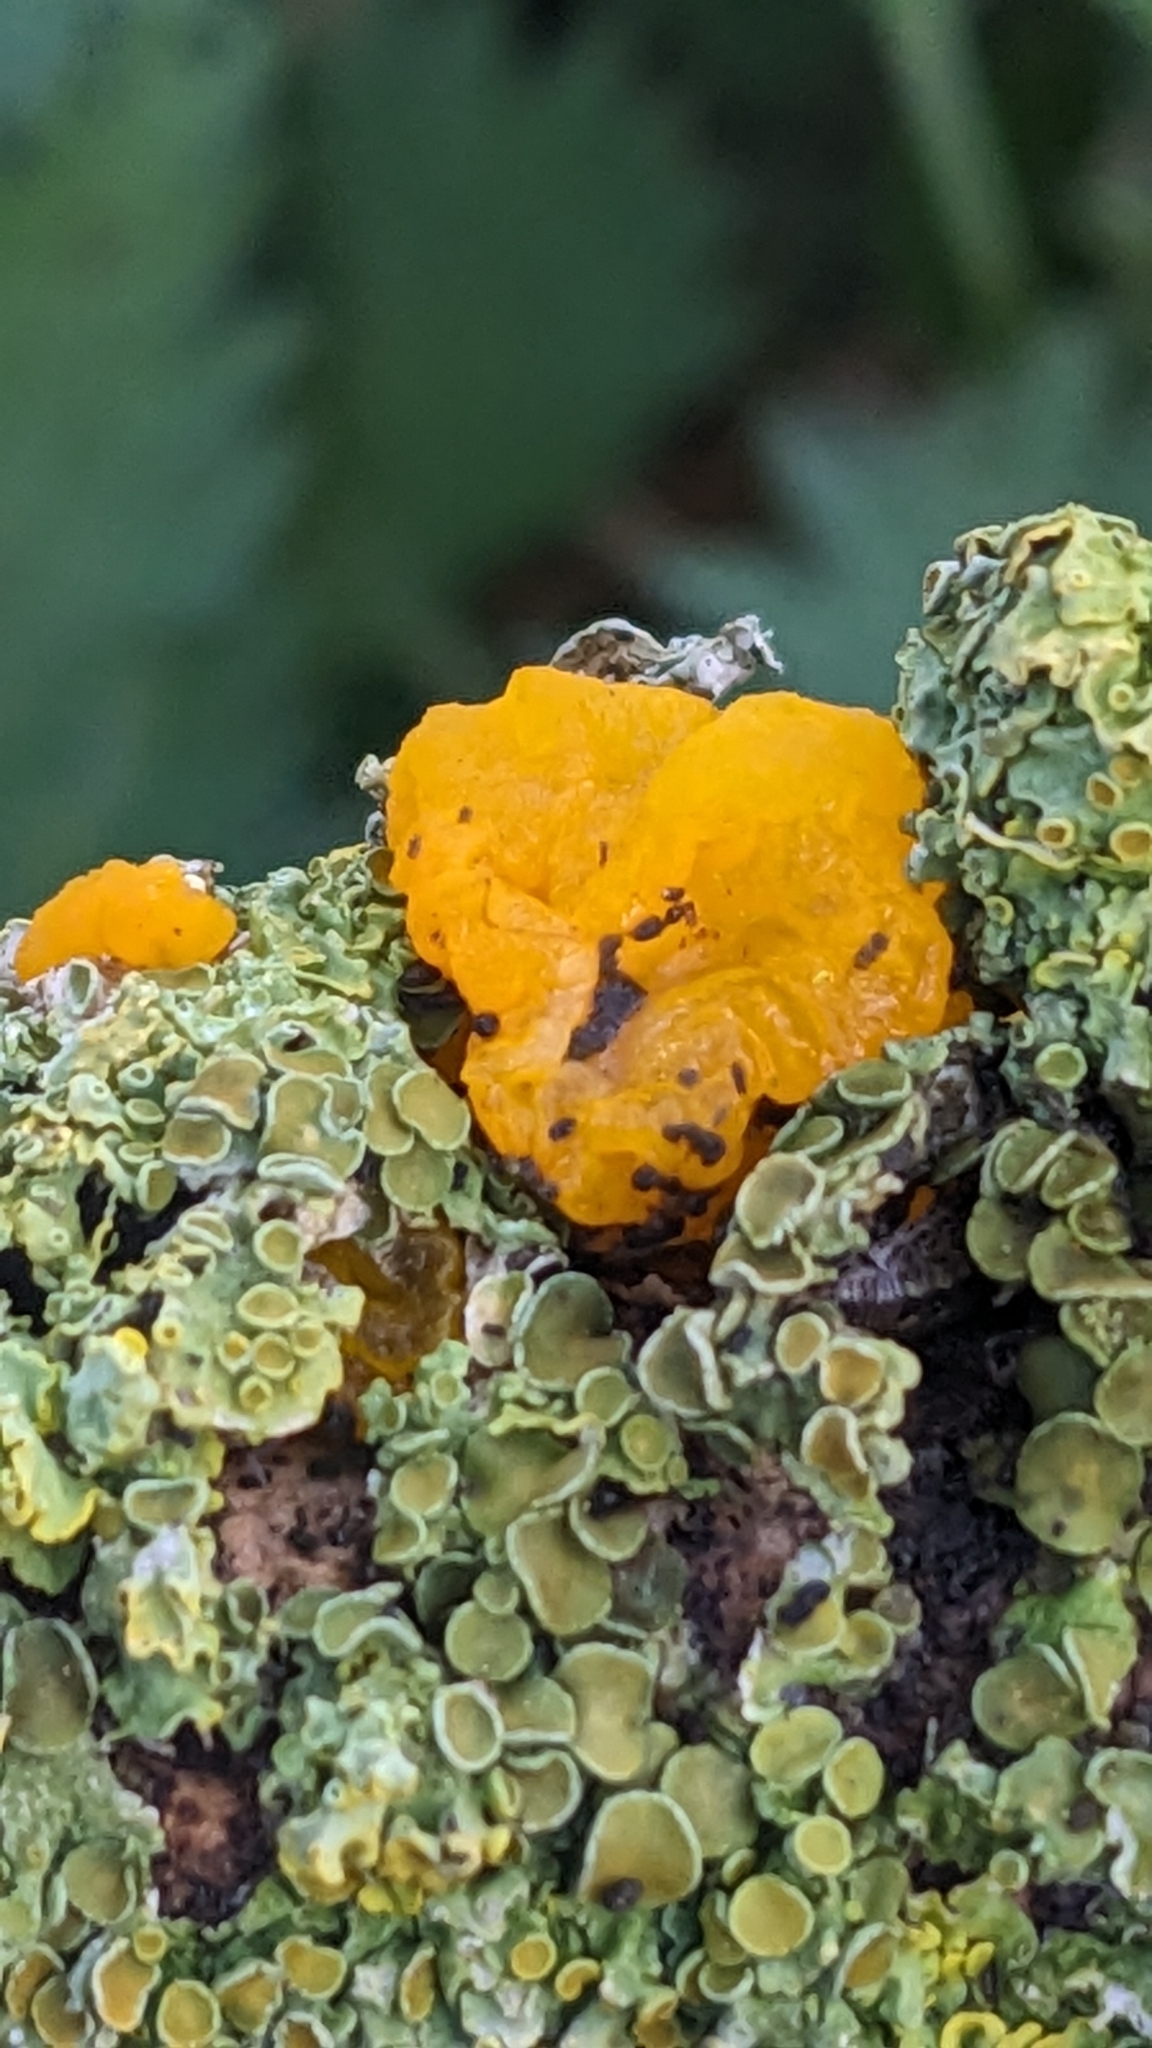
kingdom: Fungi
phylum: Basidiomycota
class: Tremellomycetes
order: Tremellales
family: Tremellaceae
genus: Tremella
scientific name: Tremella mesenterica
